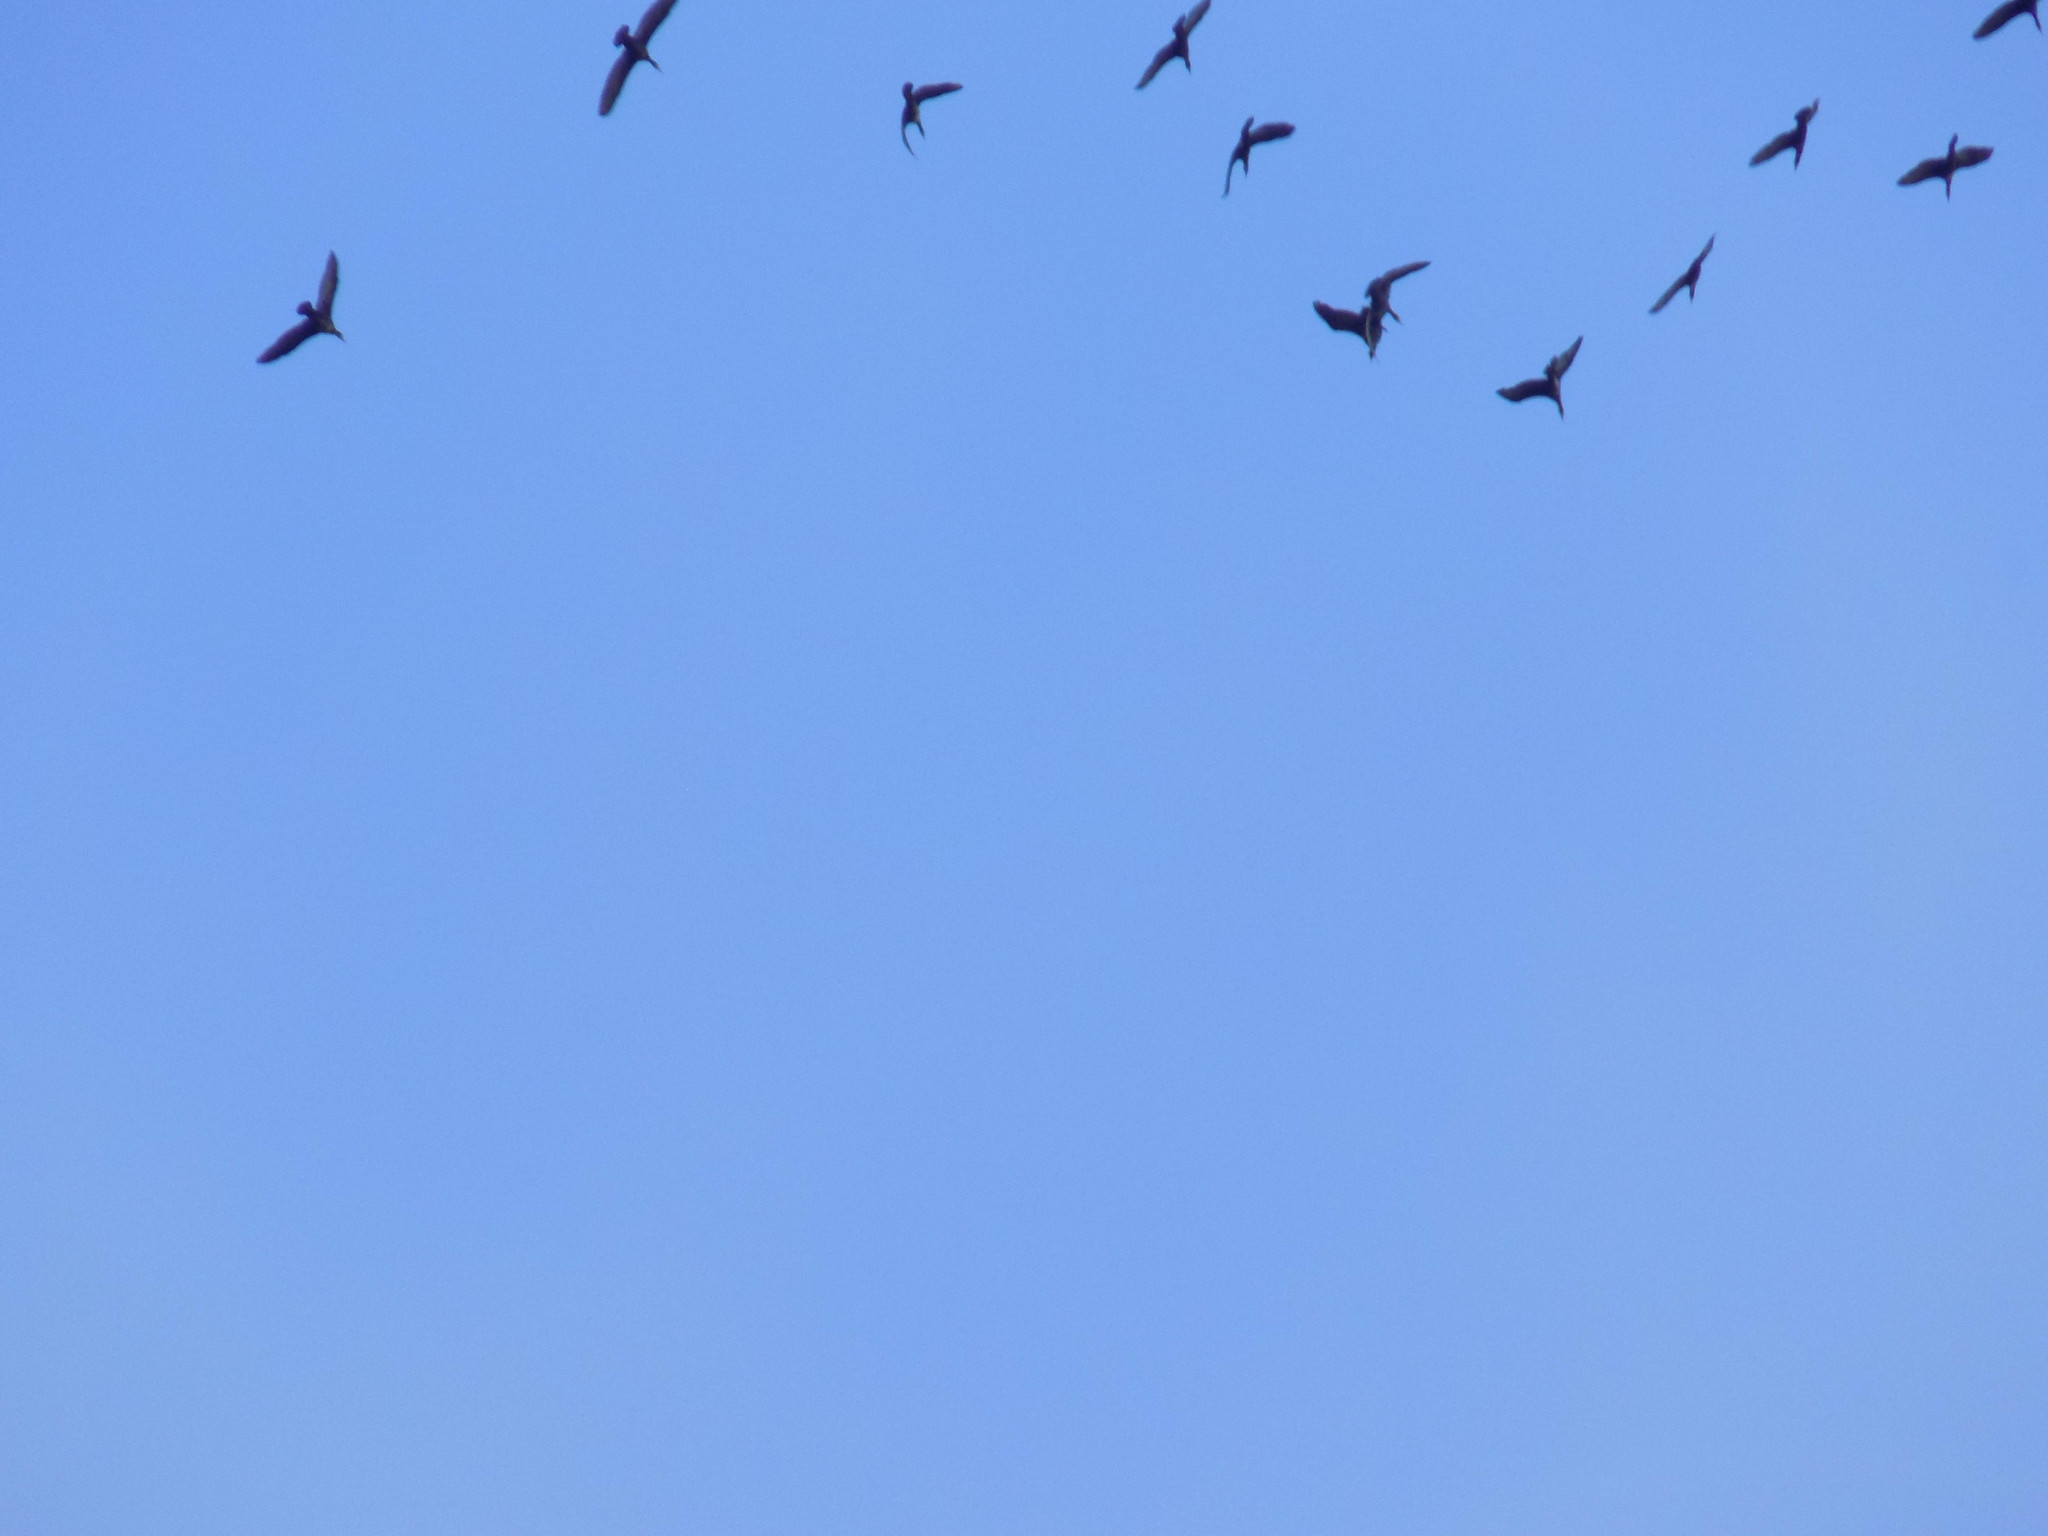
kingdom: Animalia
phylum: Chordata
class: Aves
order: Suliformes
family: Phalacrocoracidae
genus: Phalacrocorax
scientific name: Phalacrocorax carbo
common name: Great cormorant
